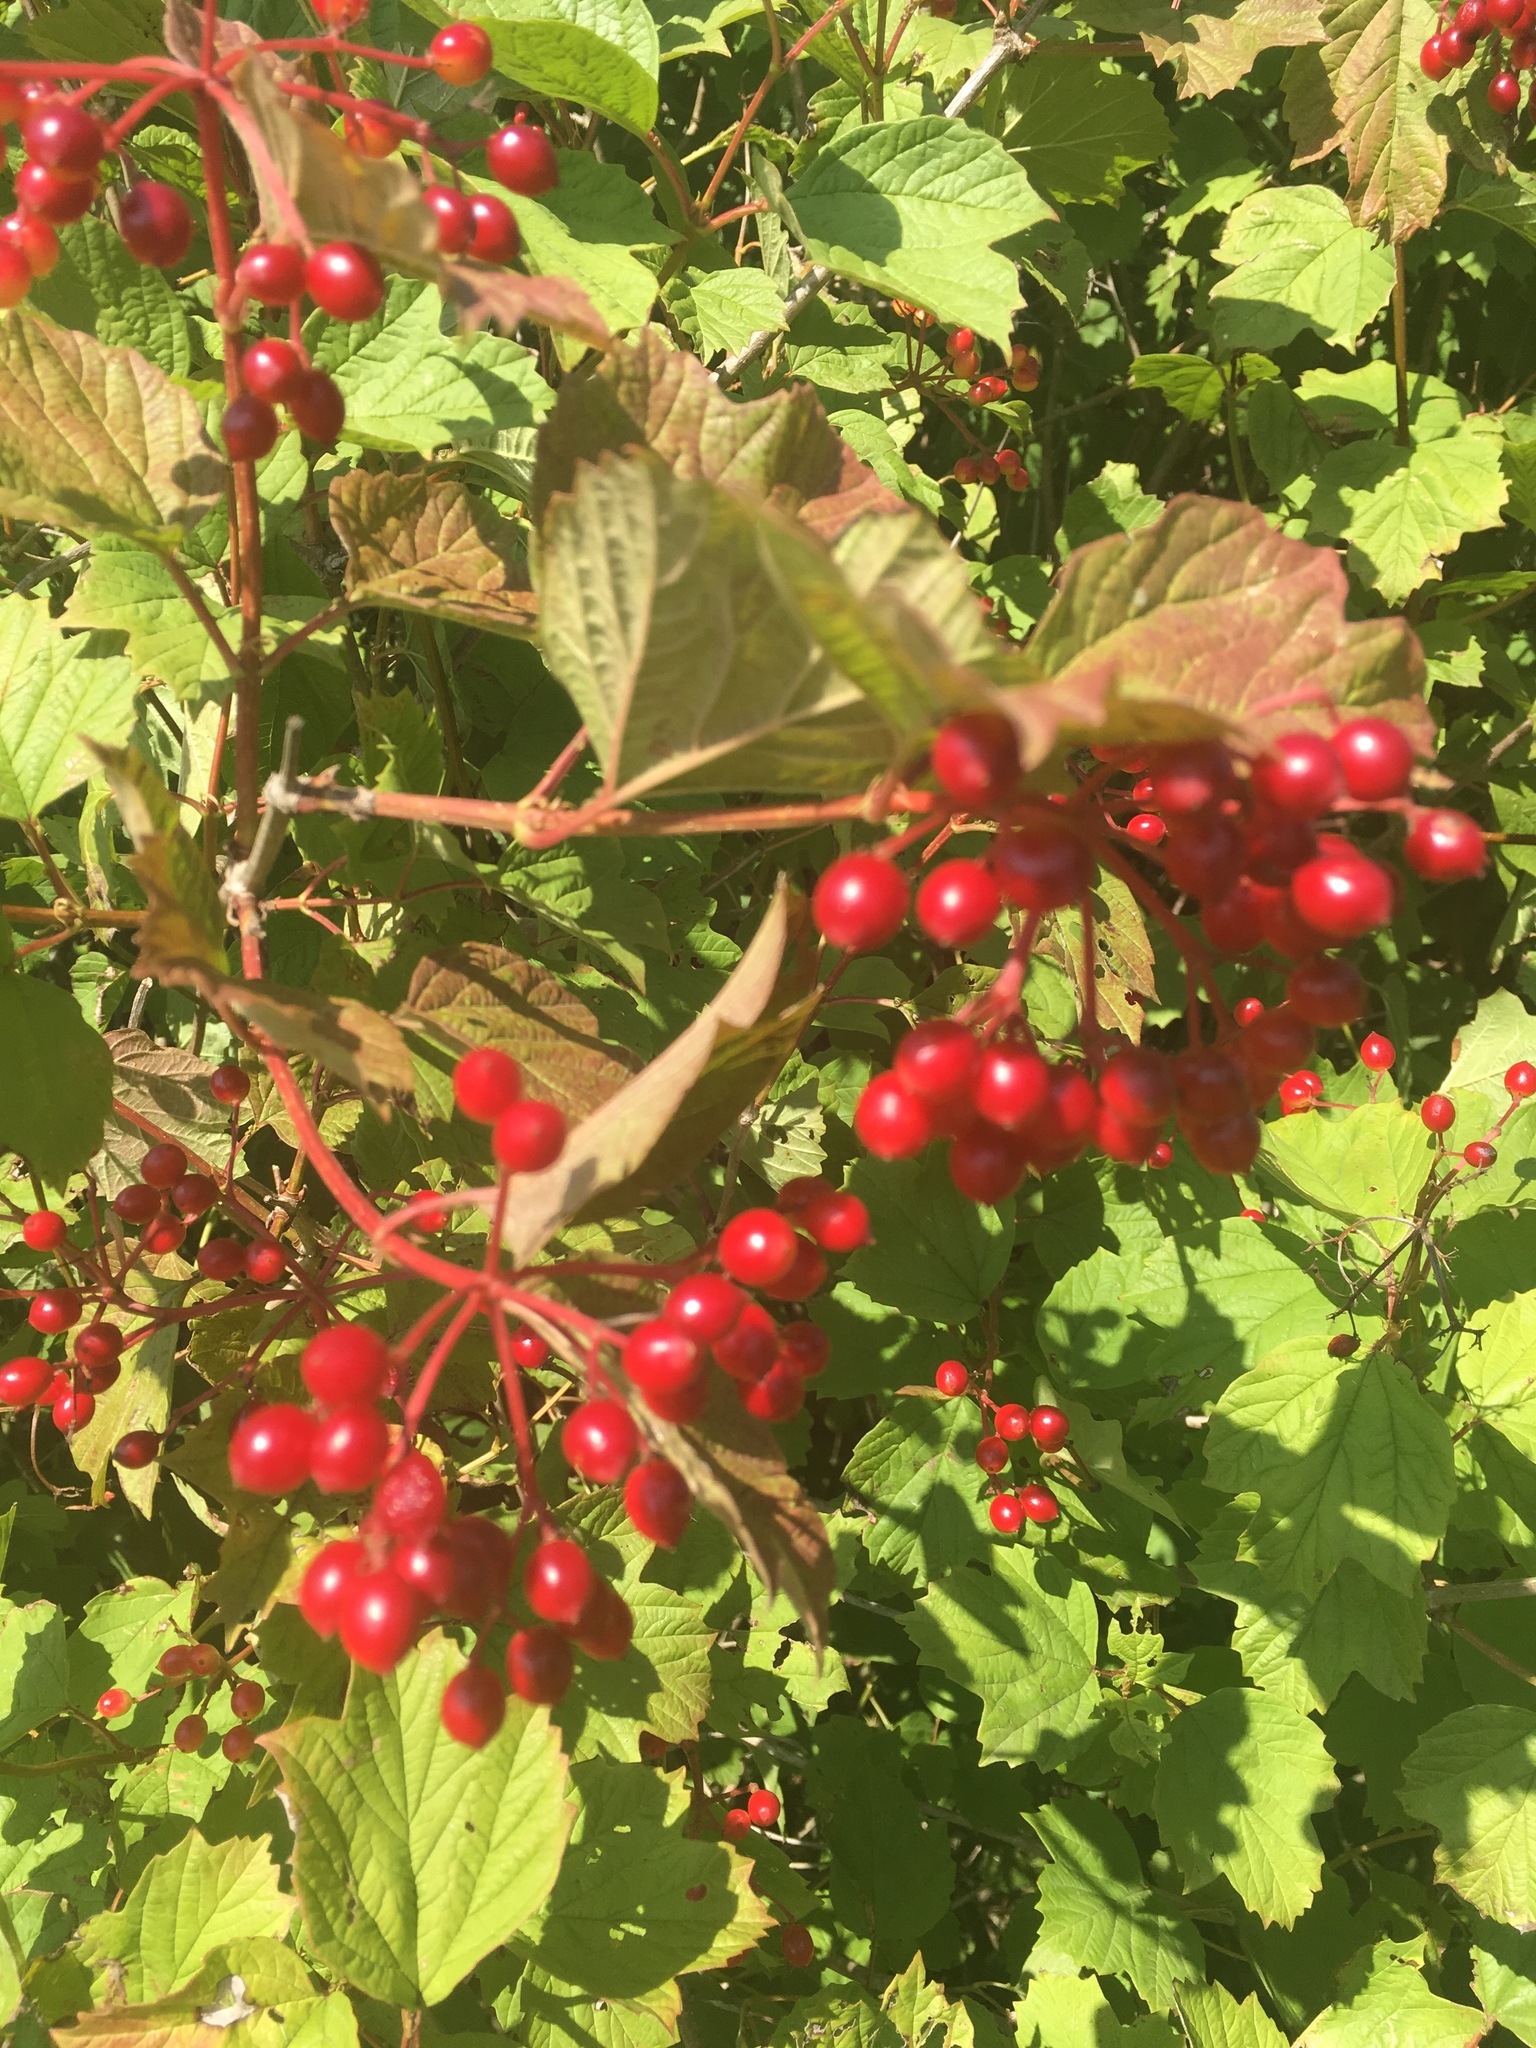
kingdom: Plantae
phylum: Tracheophyta
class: Magnoliopsida
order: Dipsacales
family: Viburnaceae
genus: Viburnum
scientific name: Viburnum opulus
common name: Guelder-rose
